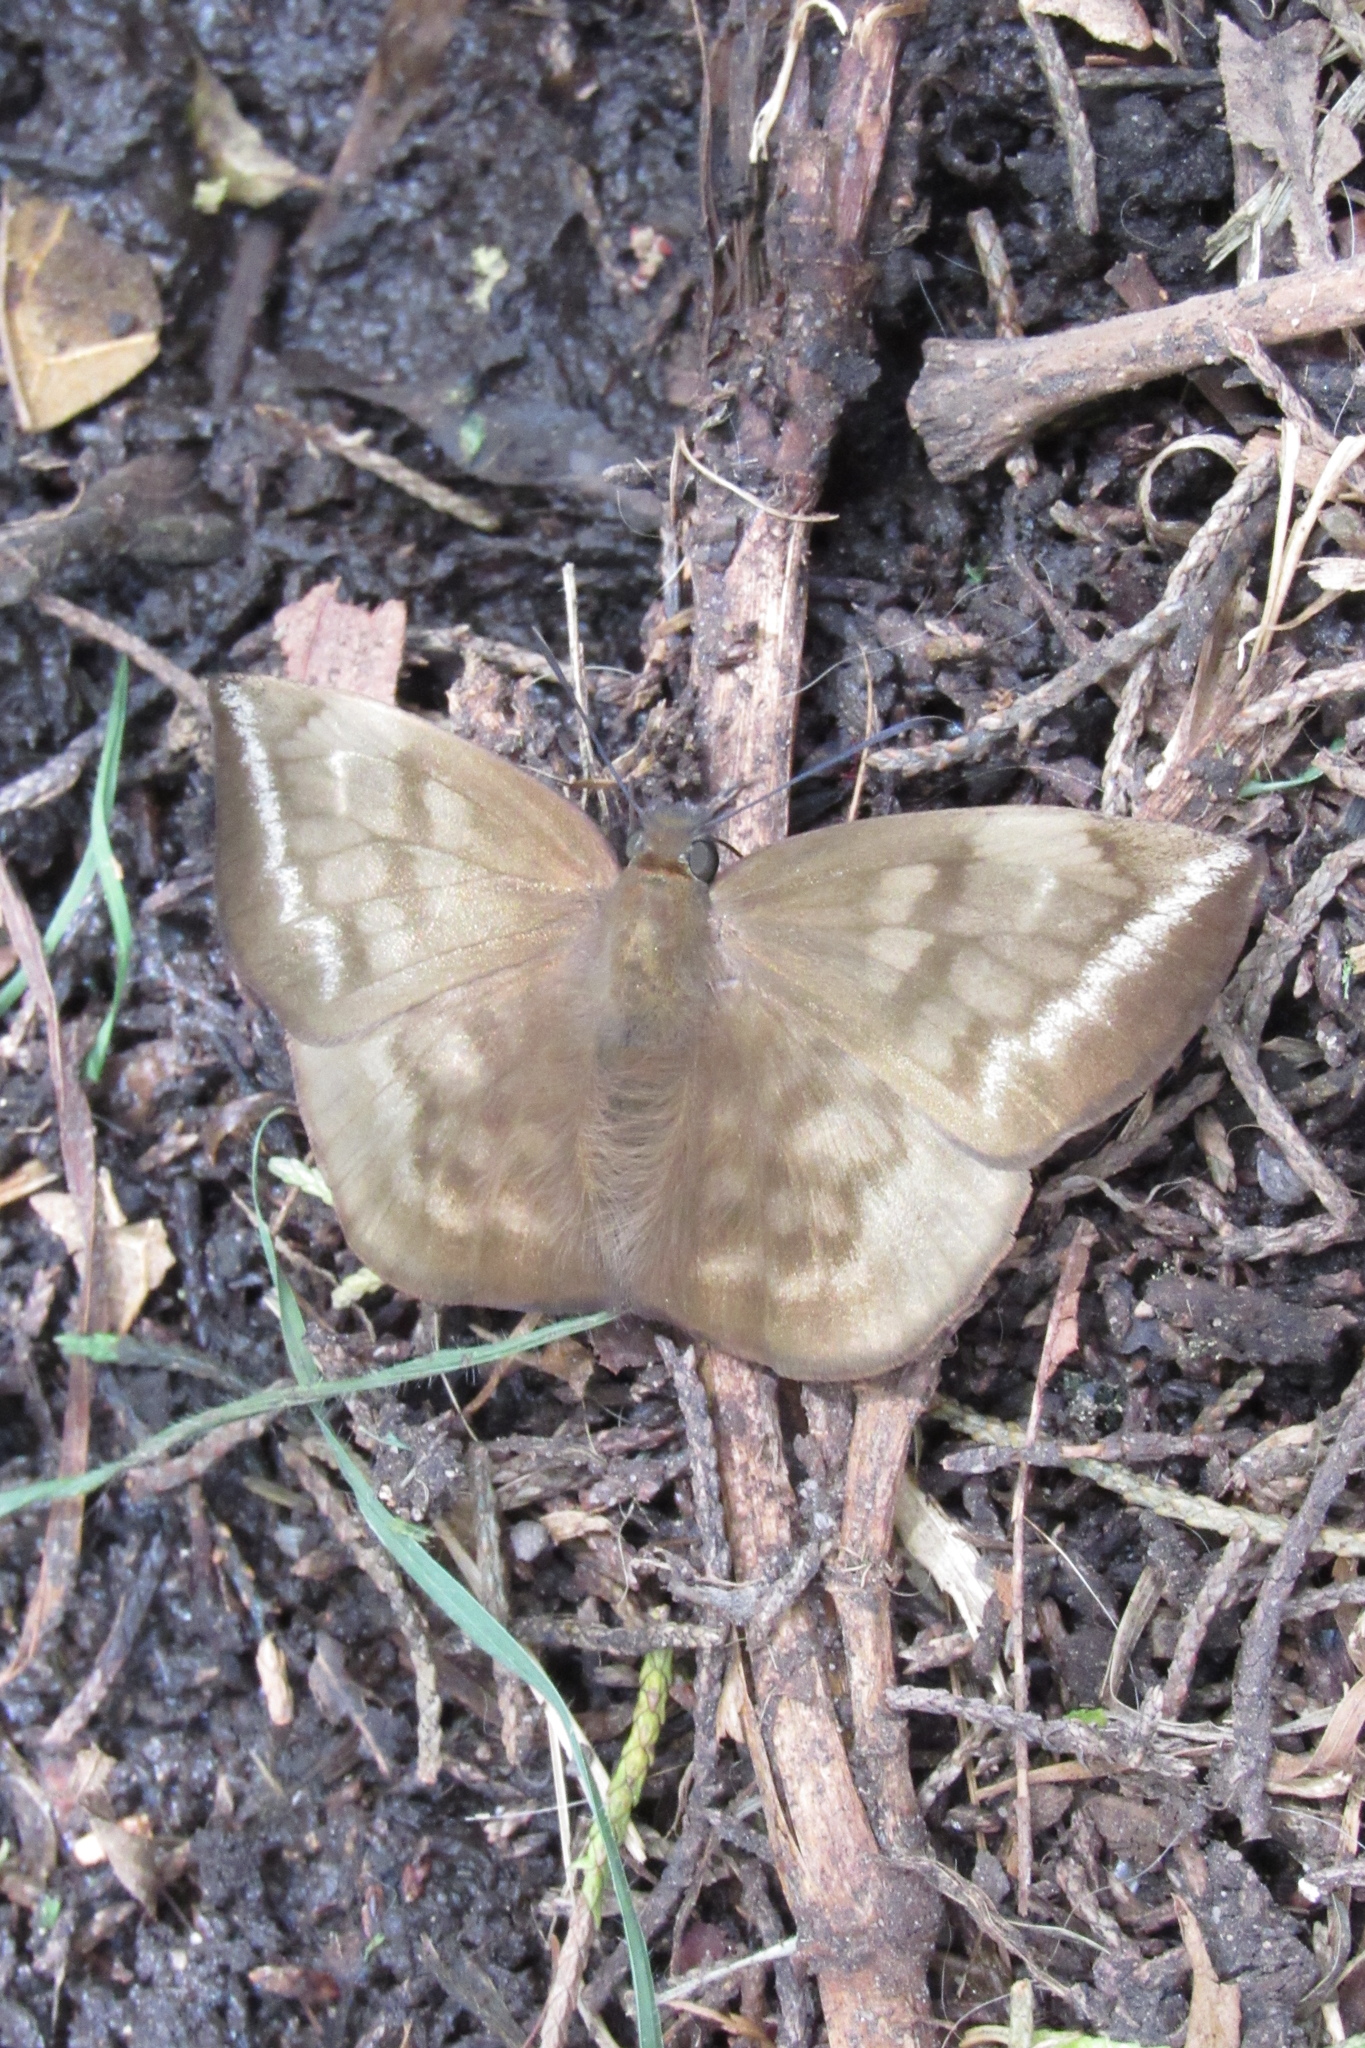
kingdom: Animalia
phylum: Arthropoda
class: Insecta
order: Lepidoptera
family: Hesperiidae
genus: Achlyodes
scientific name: Achlyodes pallida
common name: Pale sicklewing
